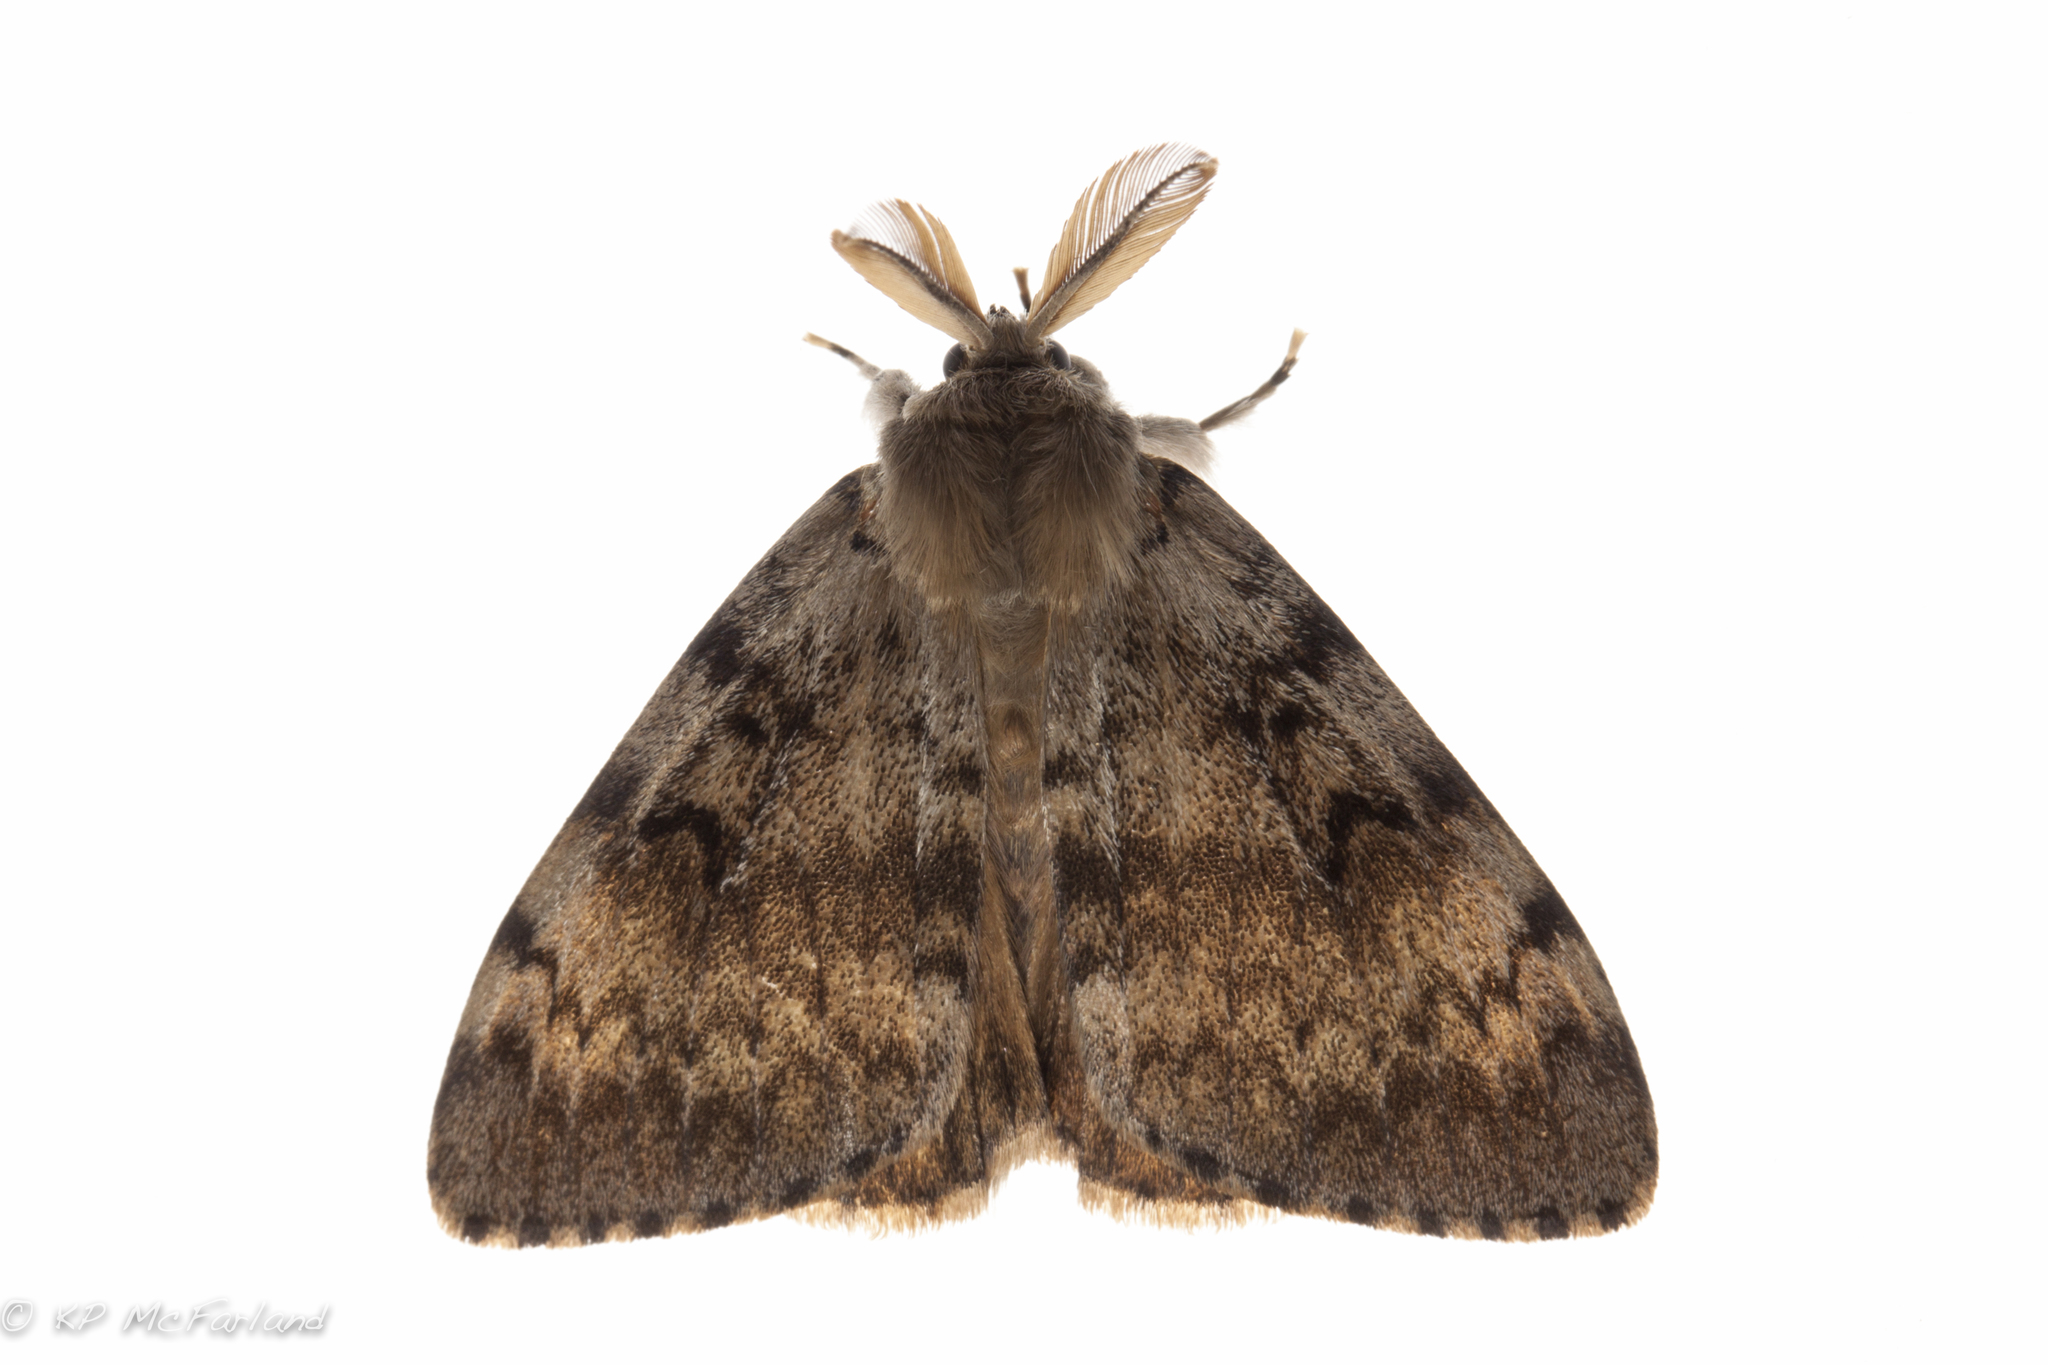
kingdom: Animalia
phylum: Arthropoda
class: Insecta
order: Lepidoptera
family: Erebidae
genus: Lymantria
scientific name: Lymantria dispar
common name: Gypsy moth
